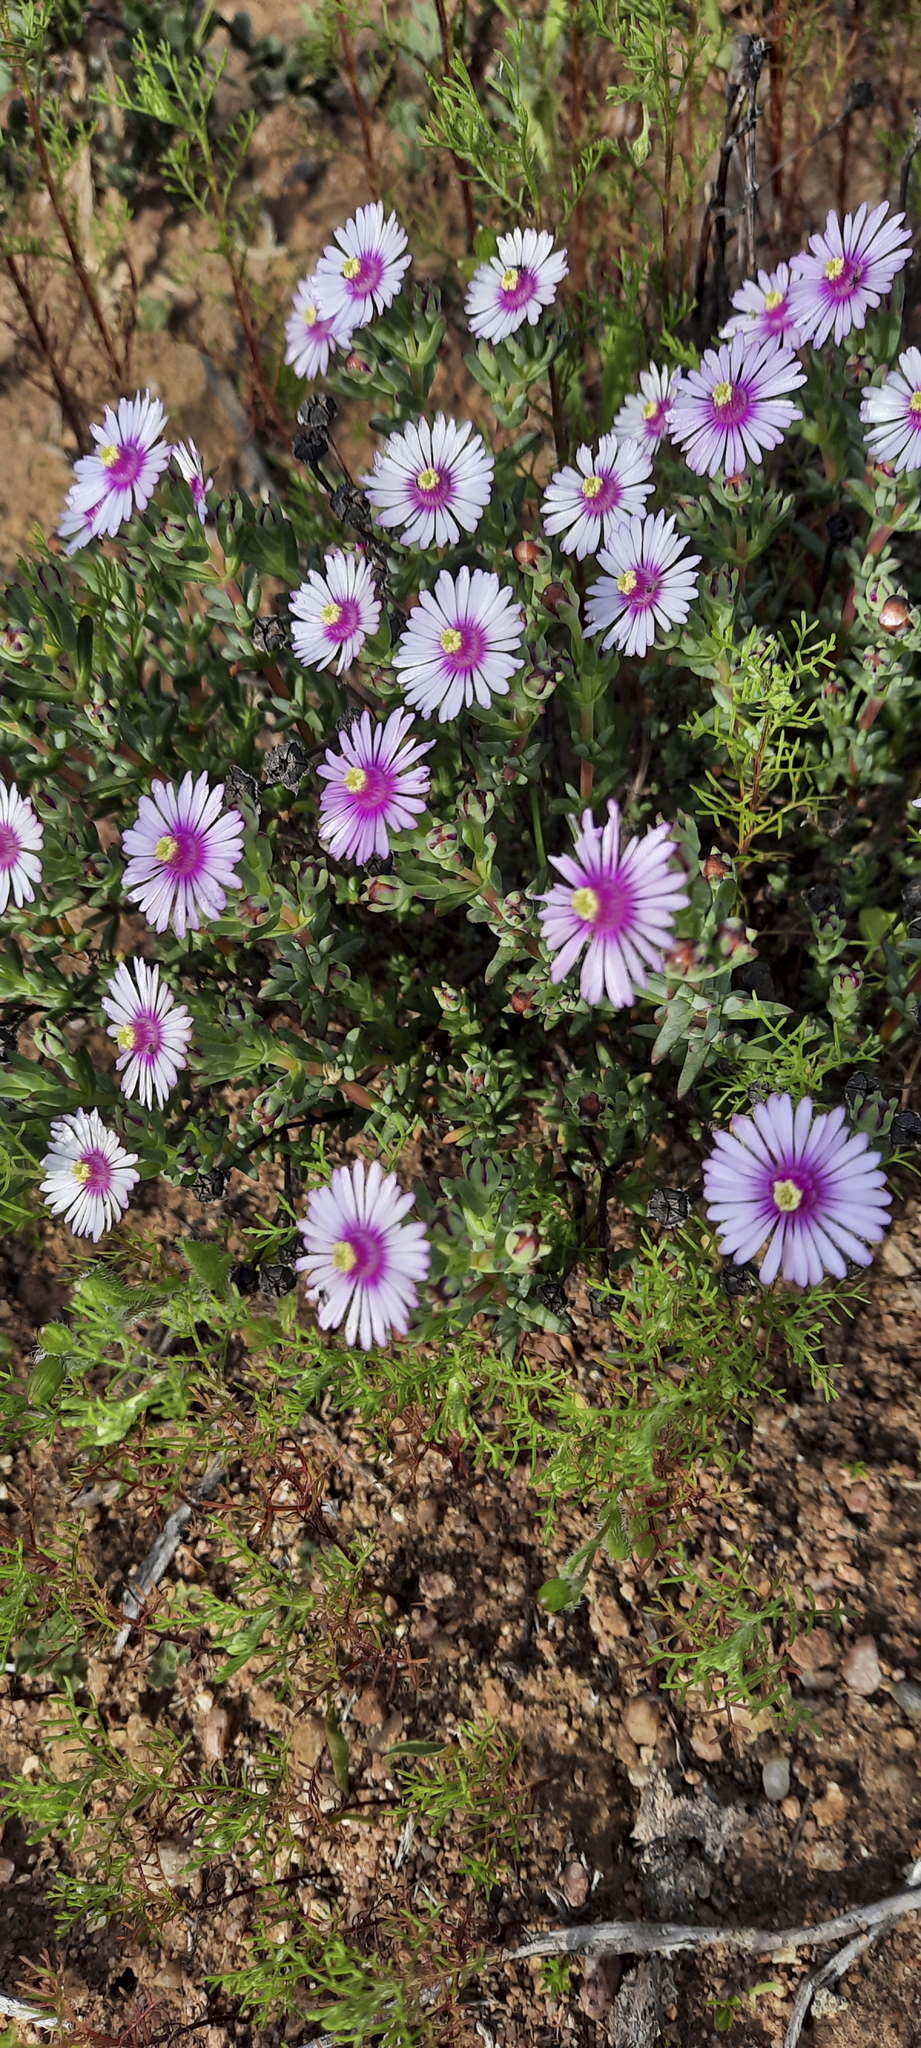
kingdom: Plantae
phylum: Tracheophyta
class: Magnoliopsida
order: Caryophyllales
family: Aizoaceae
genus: Lampranthus
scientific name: Lampranthus scaber
